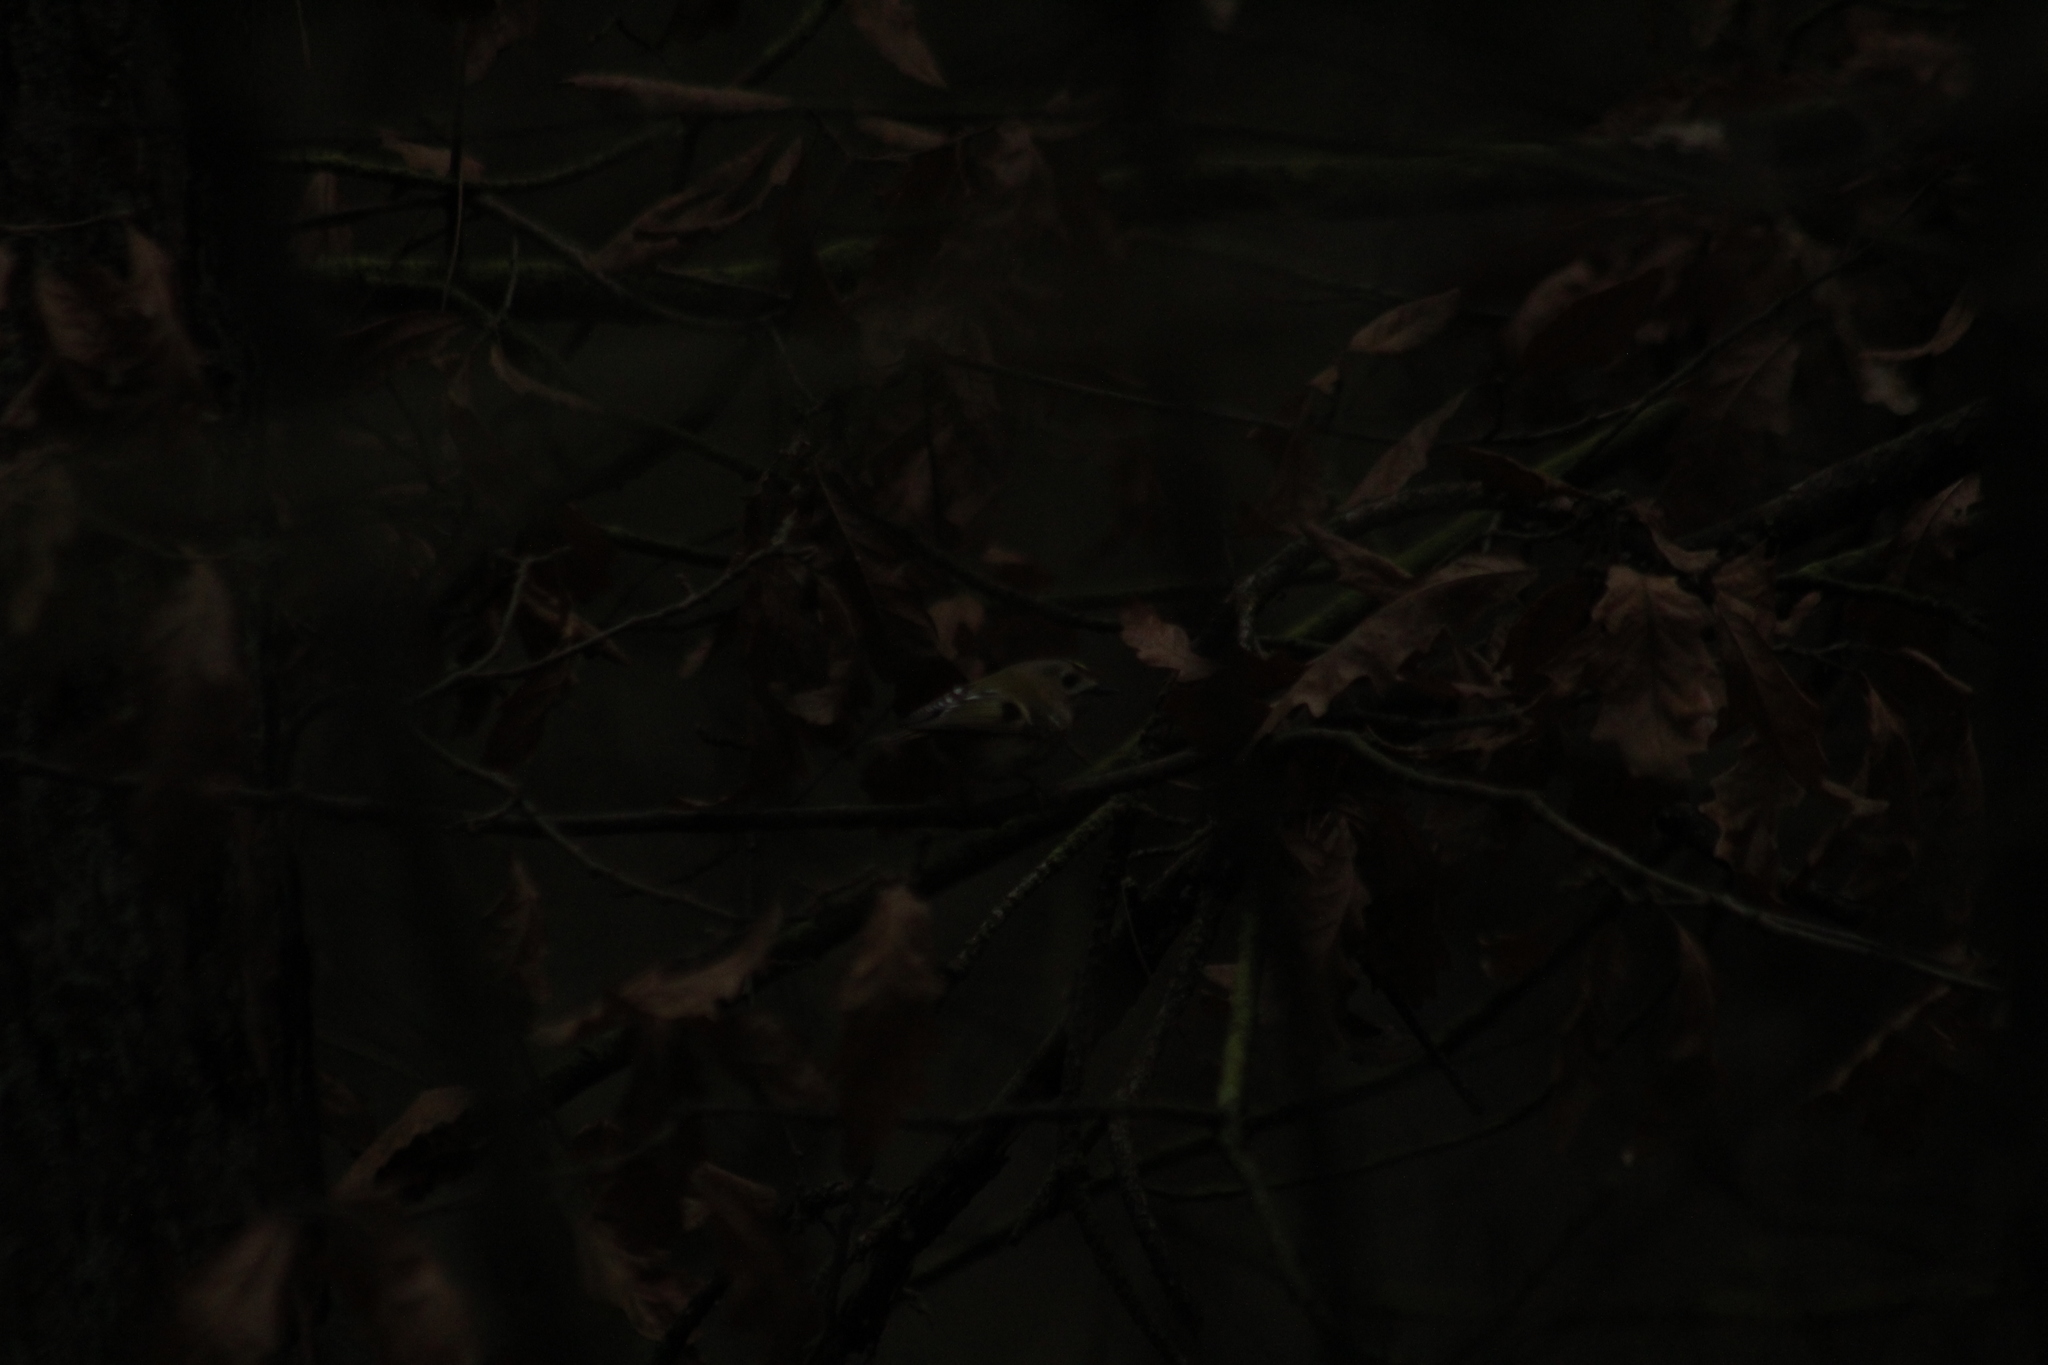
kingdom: Animalia
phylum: Chordata
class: Aves
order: Passeriformes
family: Regulidae
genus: Regulus
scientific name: Regulus regulus
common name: Goldcrest
